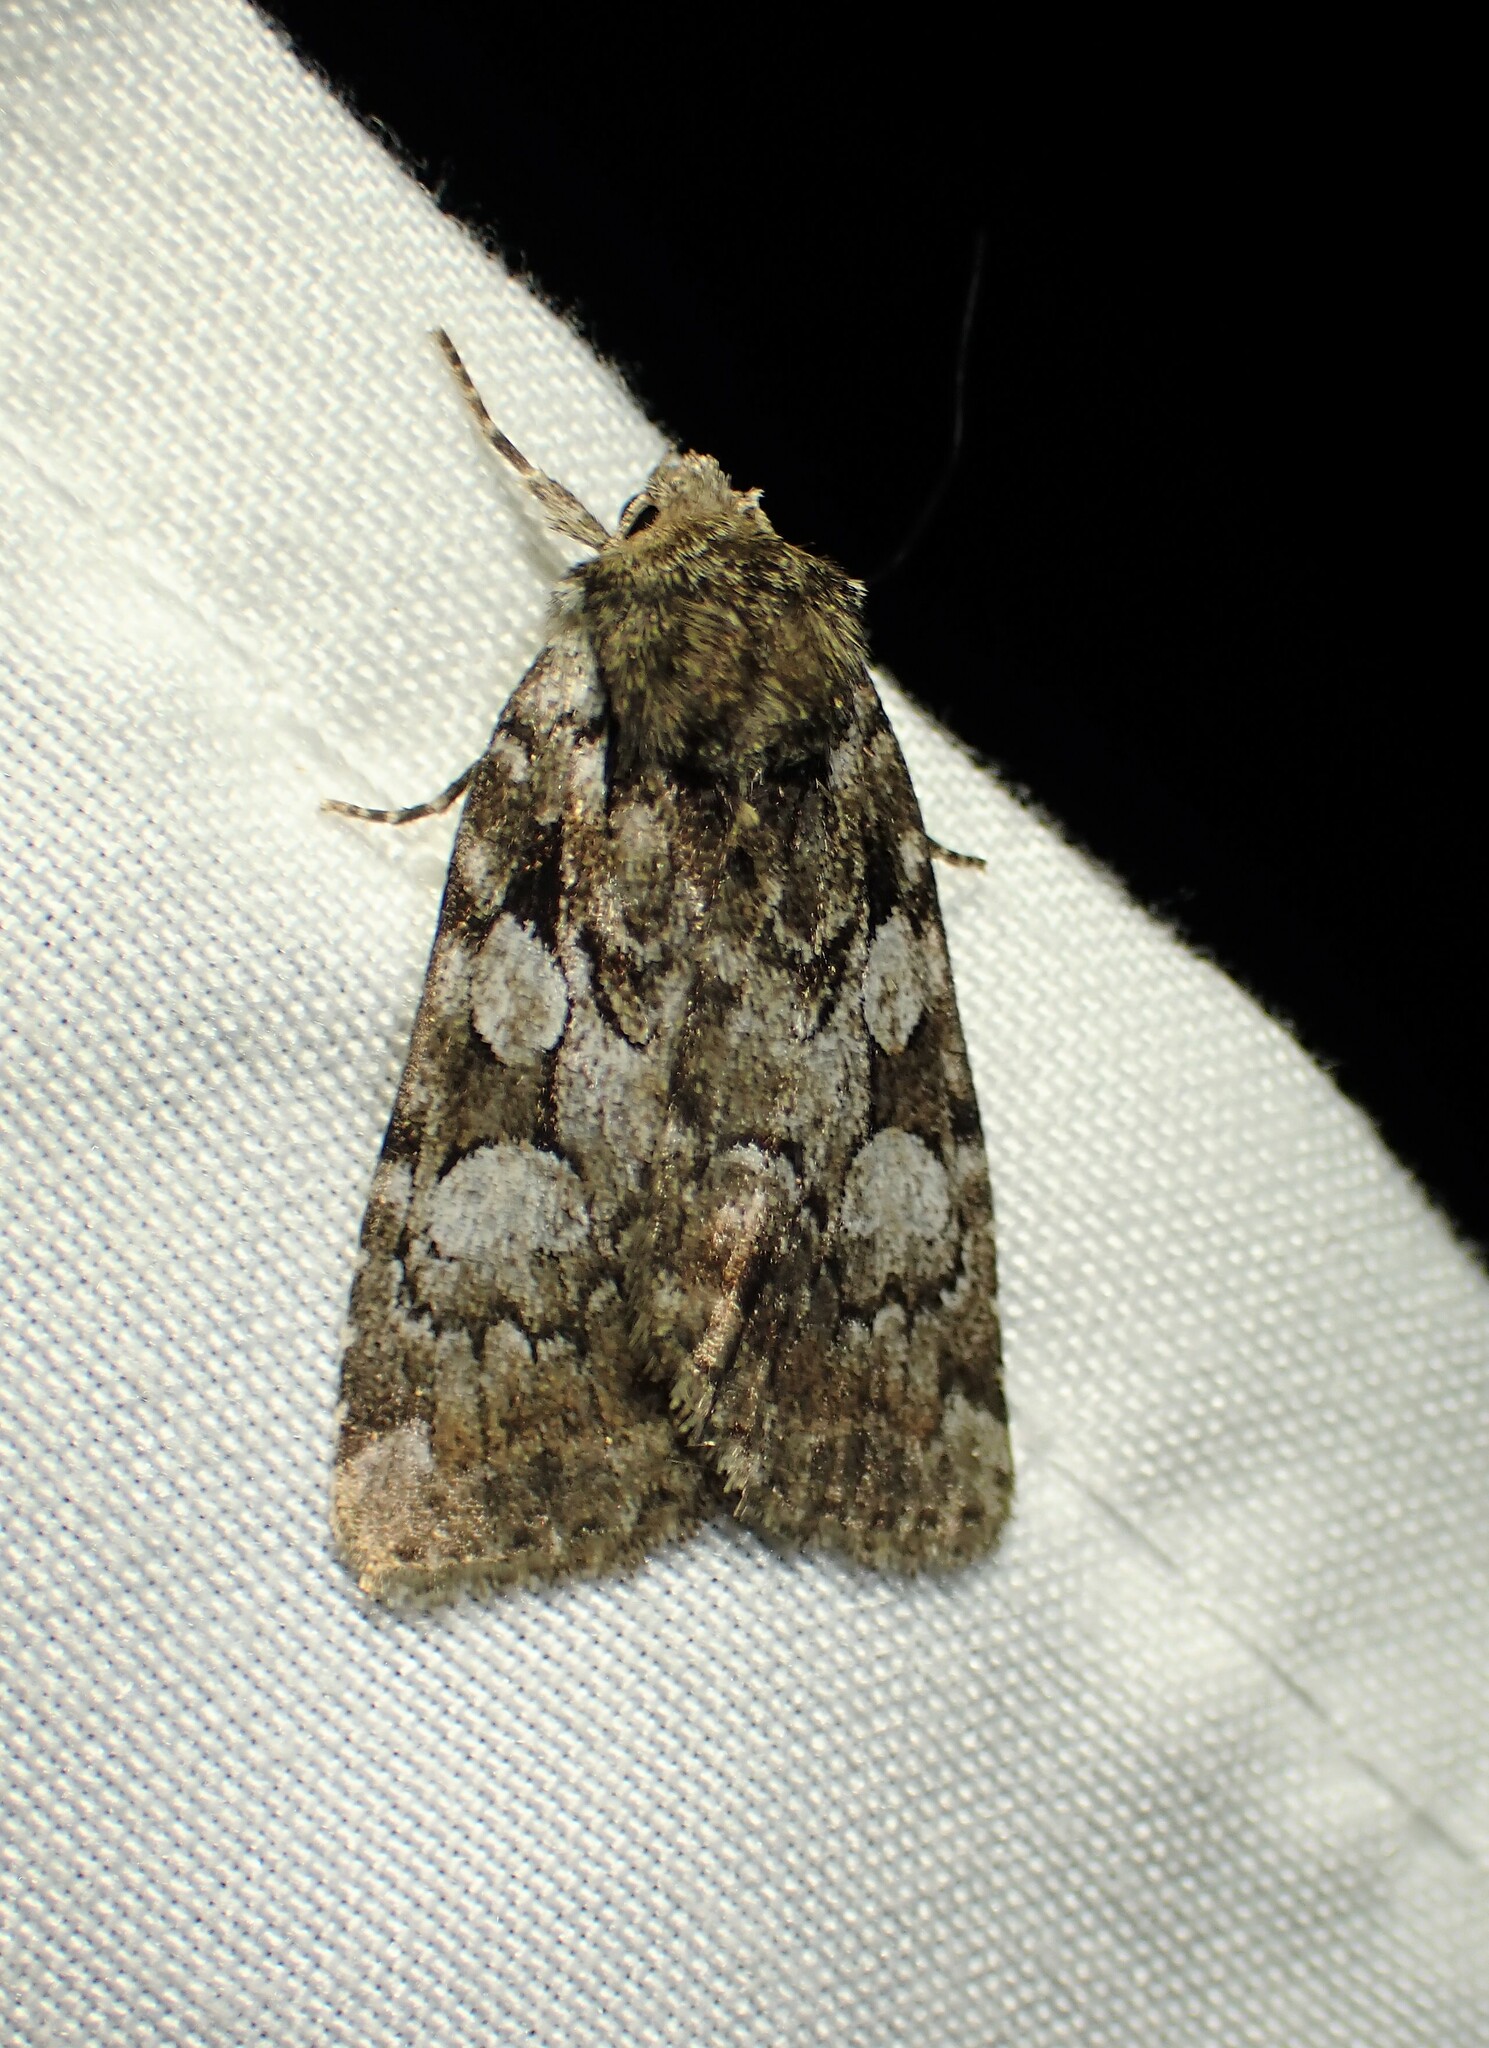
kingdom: Animalia
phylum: Arthropoda
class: Insecta
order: Lepidoptera
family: Noctuidae
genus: Aplectoides
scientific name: Aplectoides condita
